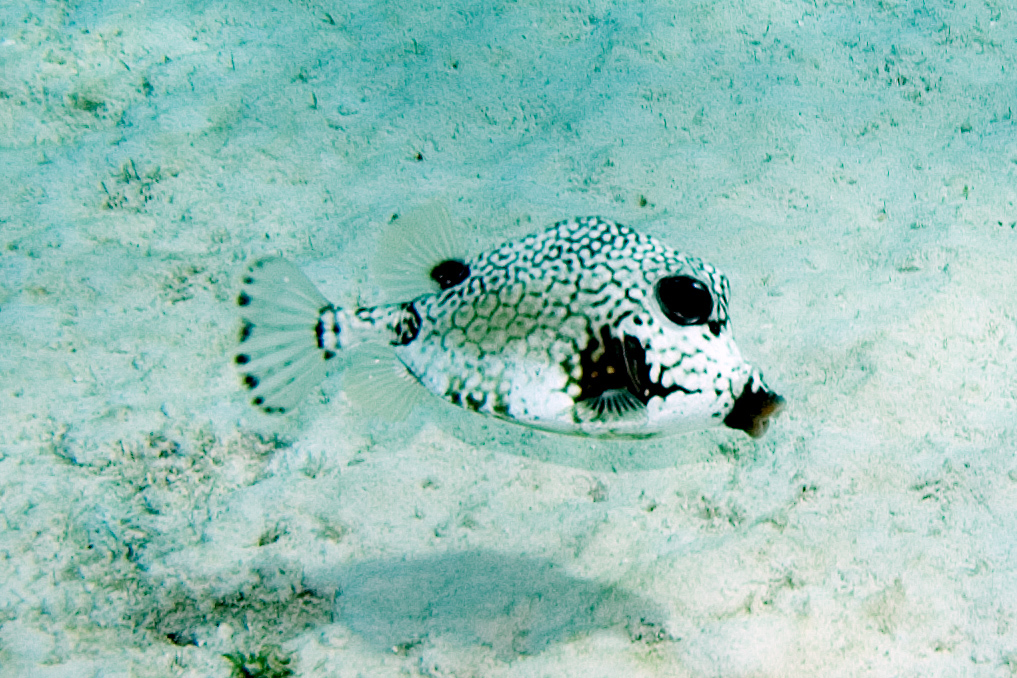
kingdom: Animalia
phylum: Chordata
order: Tetraodontiformes
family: Ostraciidae
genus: Lactophrys
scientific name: Lactophrys triqueter
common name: Smooth trunkfish
